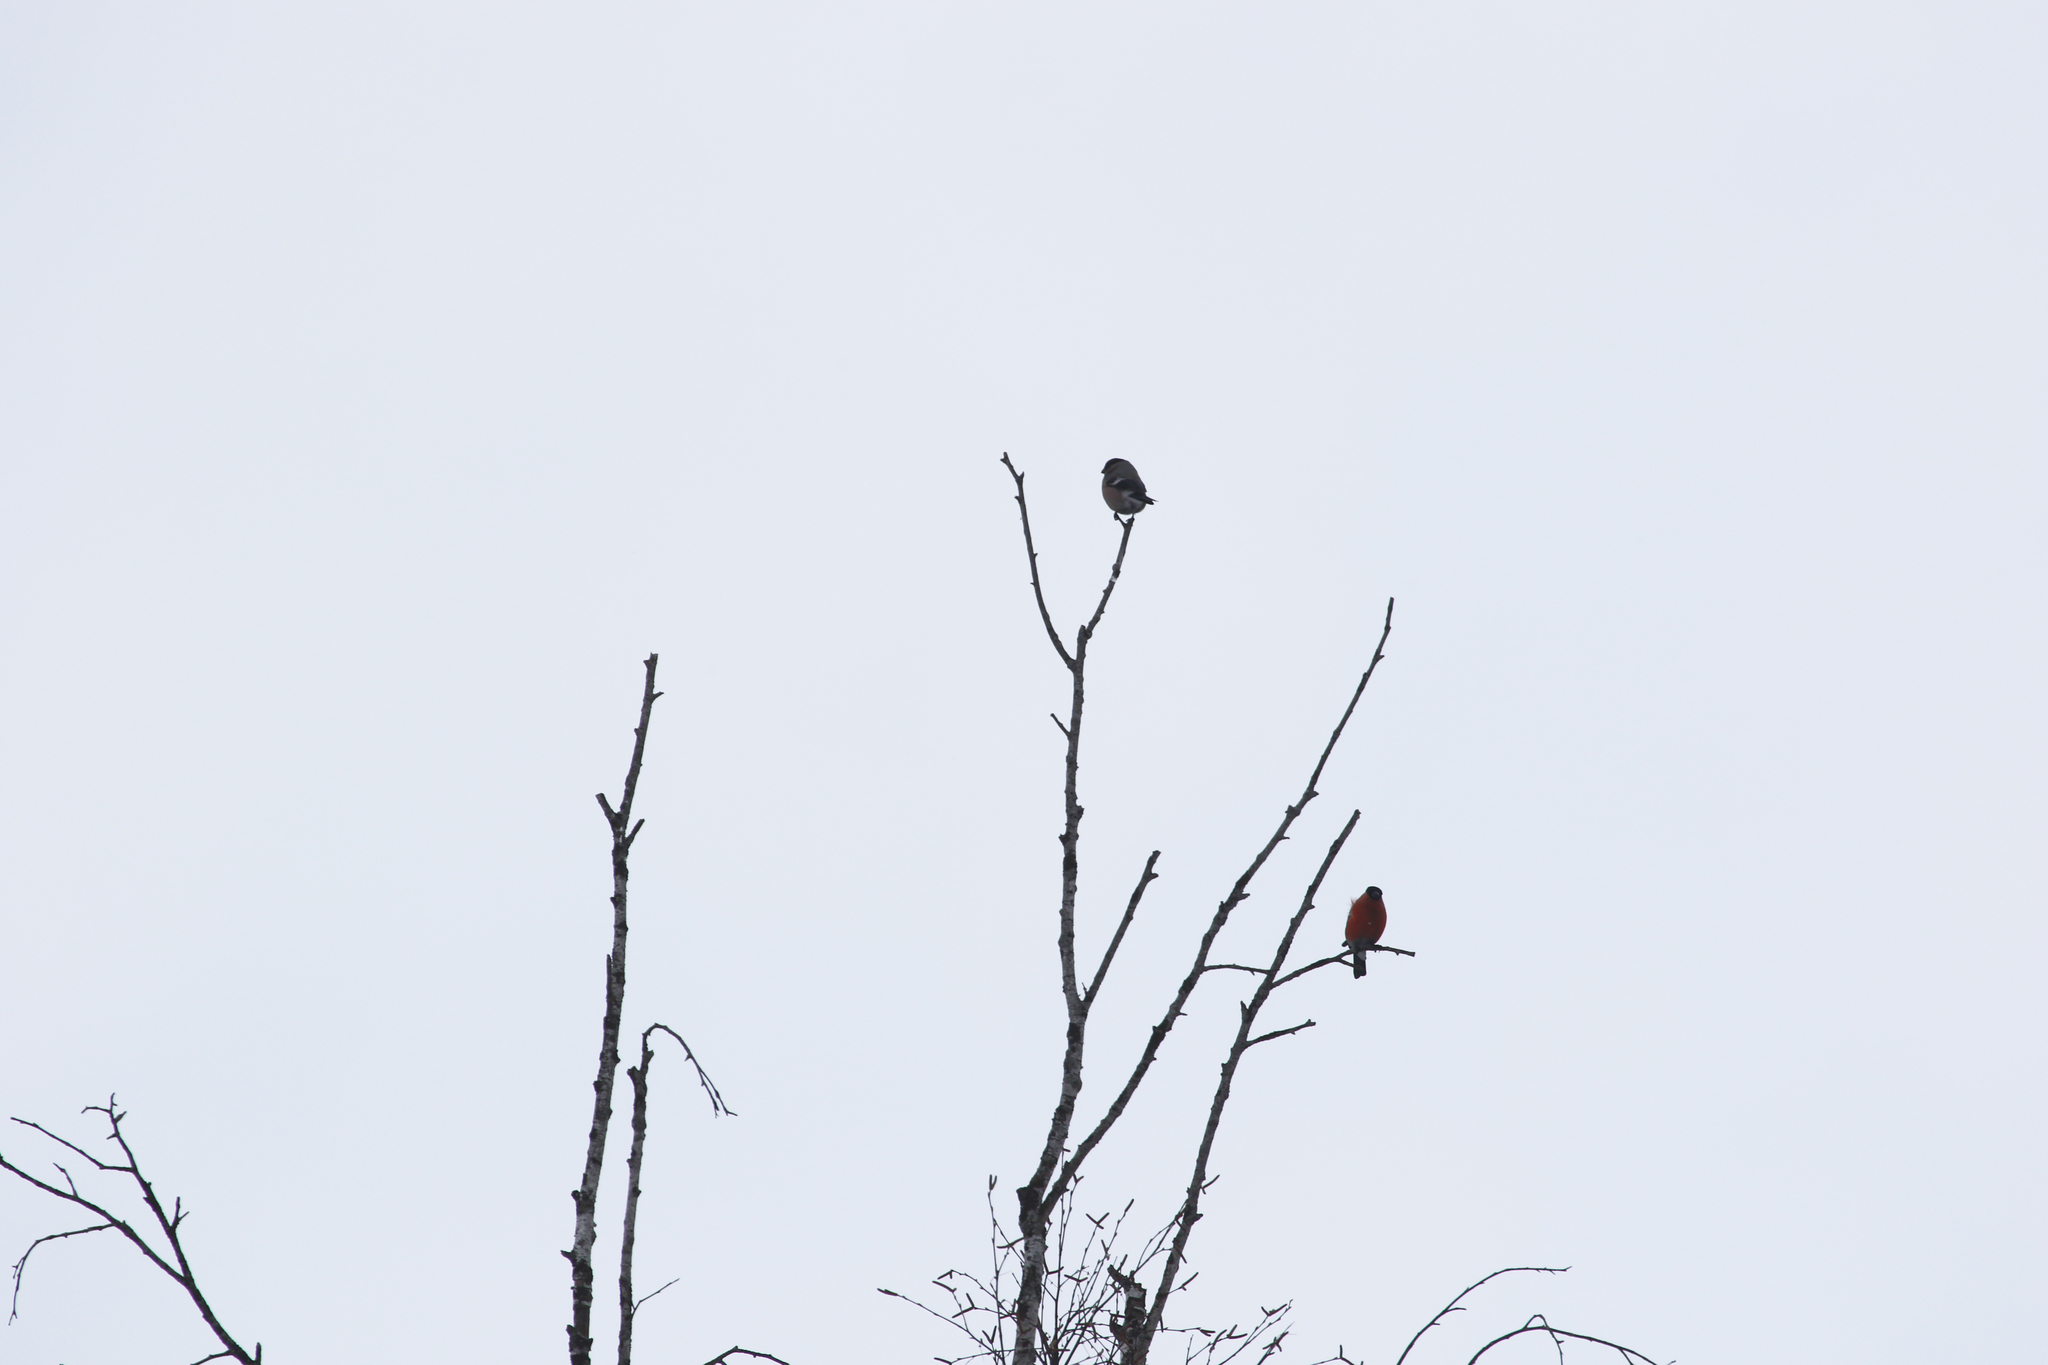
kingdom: Animalia
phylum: Chordata
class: Aves
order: Passeriformes
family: Fringillidae
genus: Pyrrhula
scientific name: Pyrrhula pyrrhula
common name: Eurasian bullfinch
